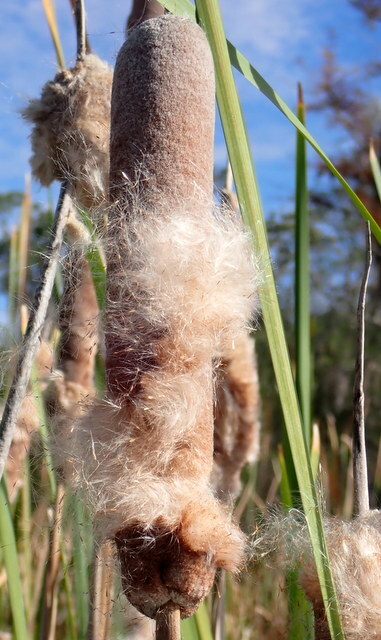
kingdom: Plantae
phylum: Tracheophyta
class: Liliopsida
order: Poales
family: Typhaceae
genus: Typha
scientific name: Typha latifolia
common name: Broadleaf cattail
